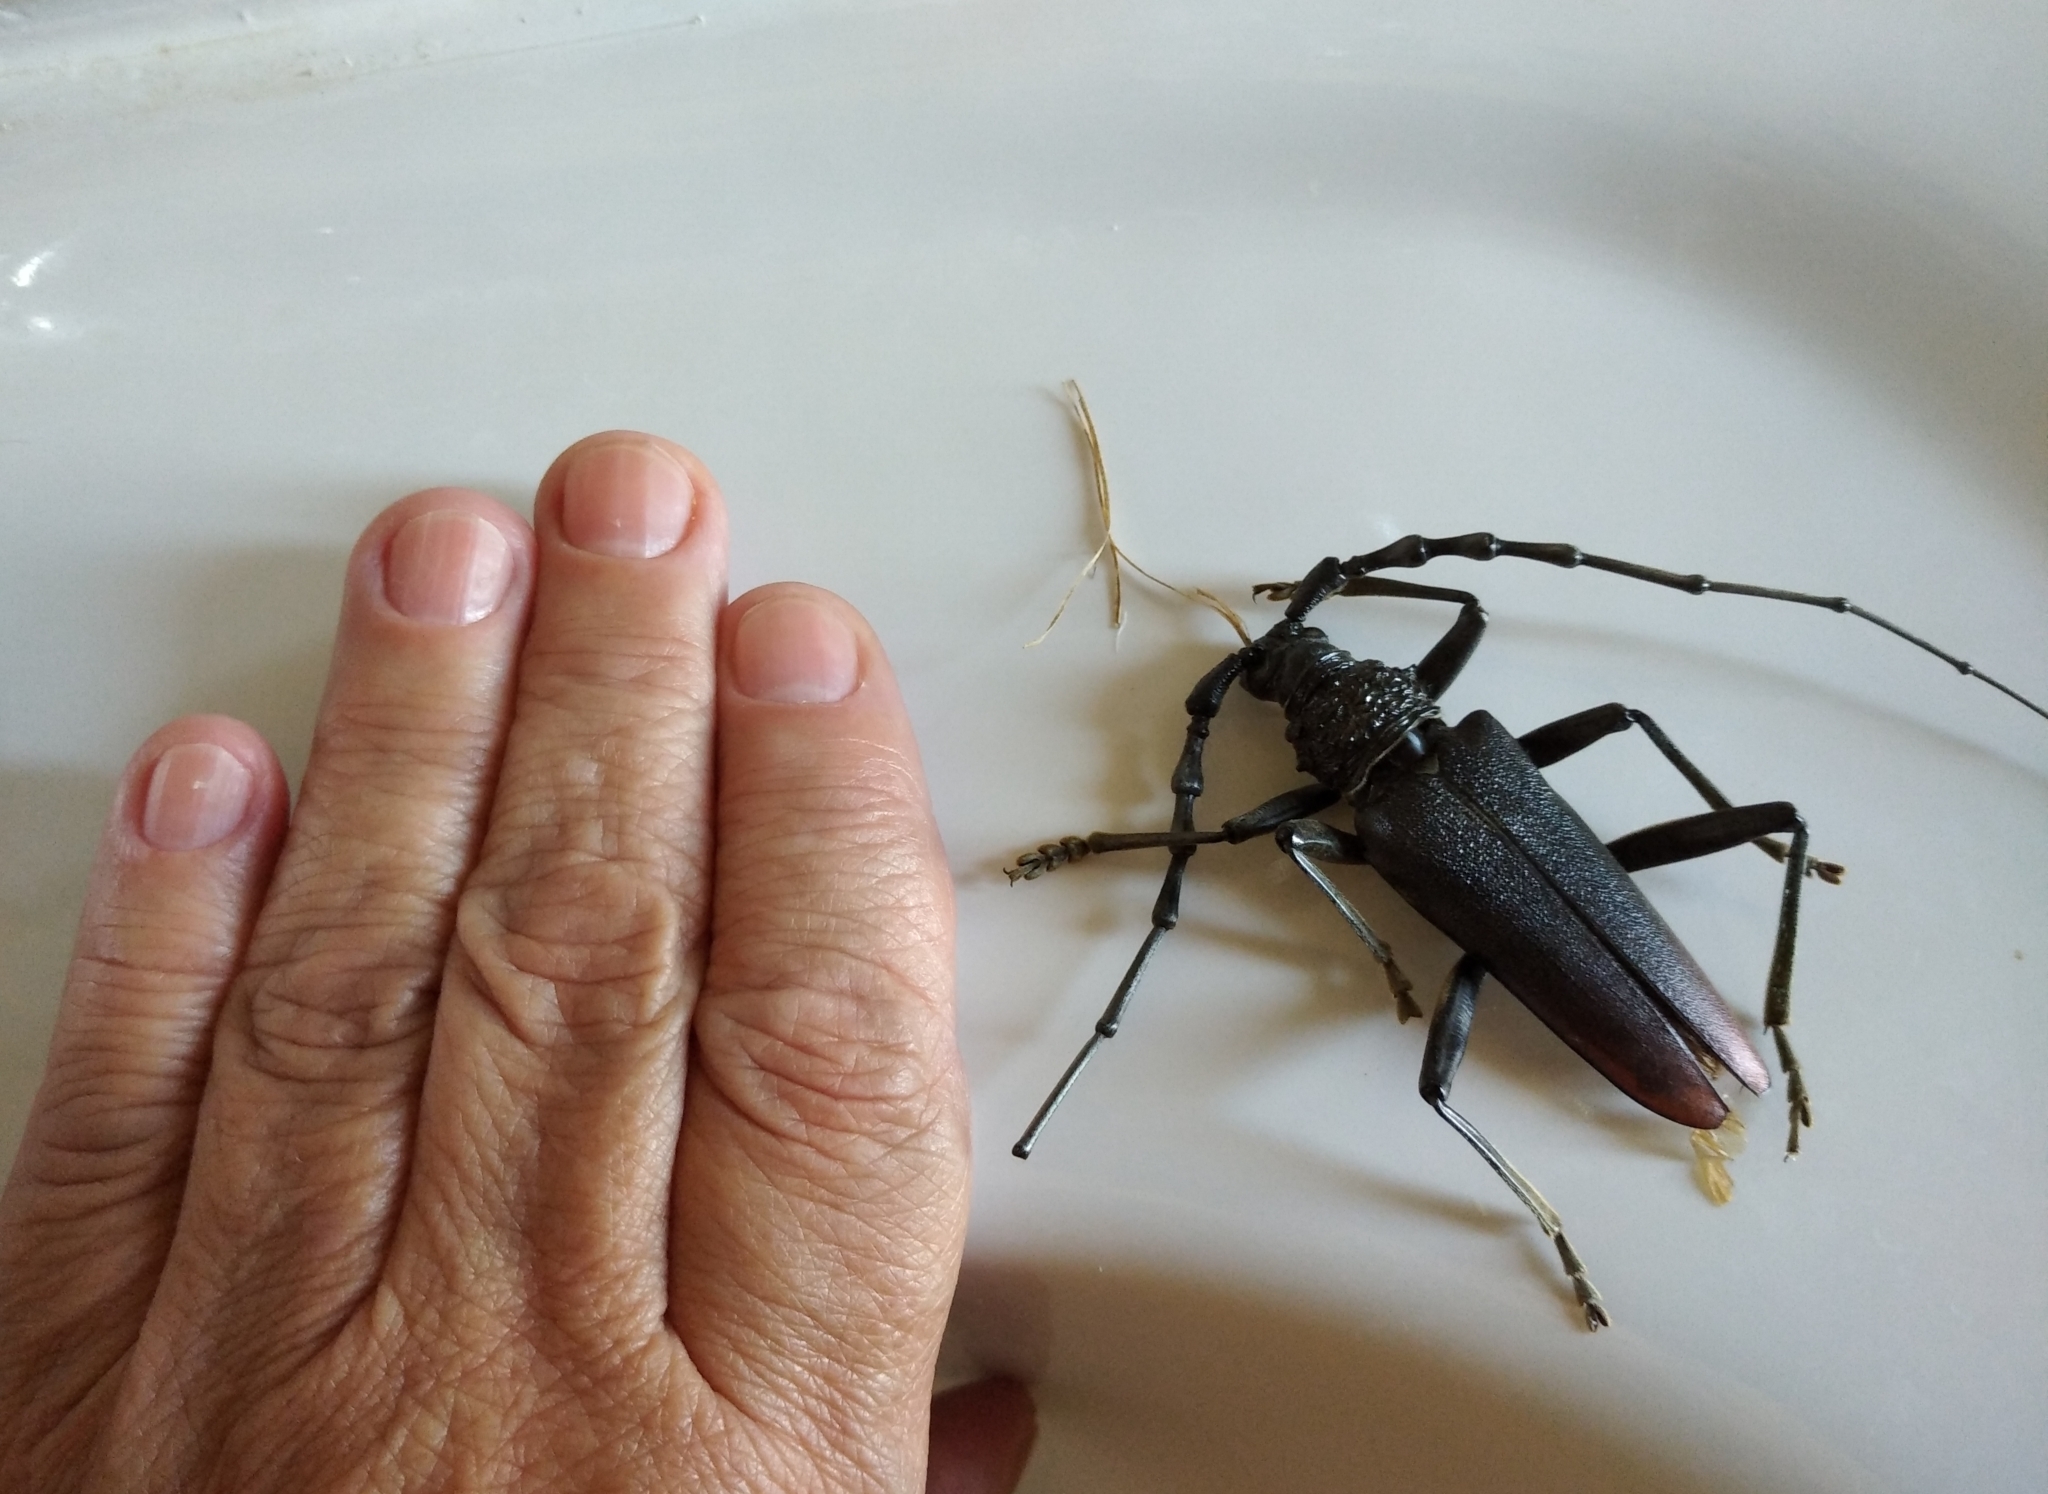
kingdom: Animalia
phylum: Arthropoda
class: Insecta
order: Coleoptera
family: Cerambycidae
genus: Cerambyx
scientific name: Cerambyx cerdo
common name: Cerambyx longicorn
